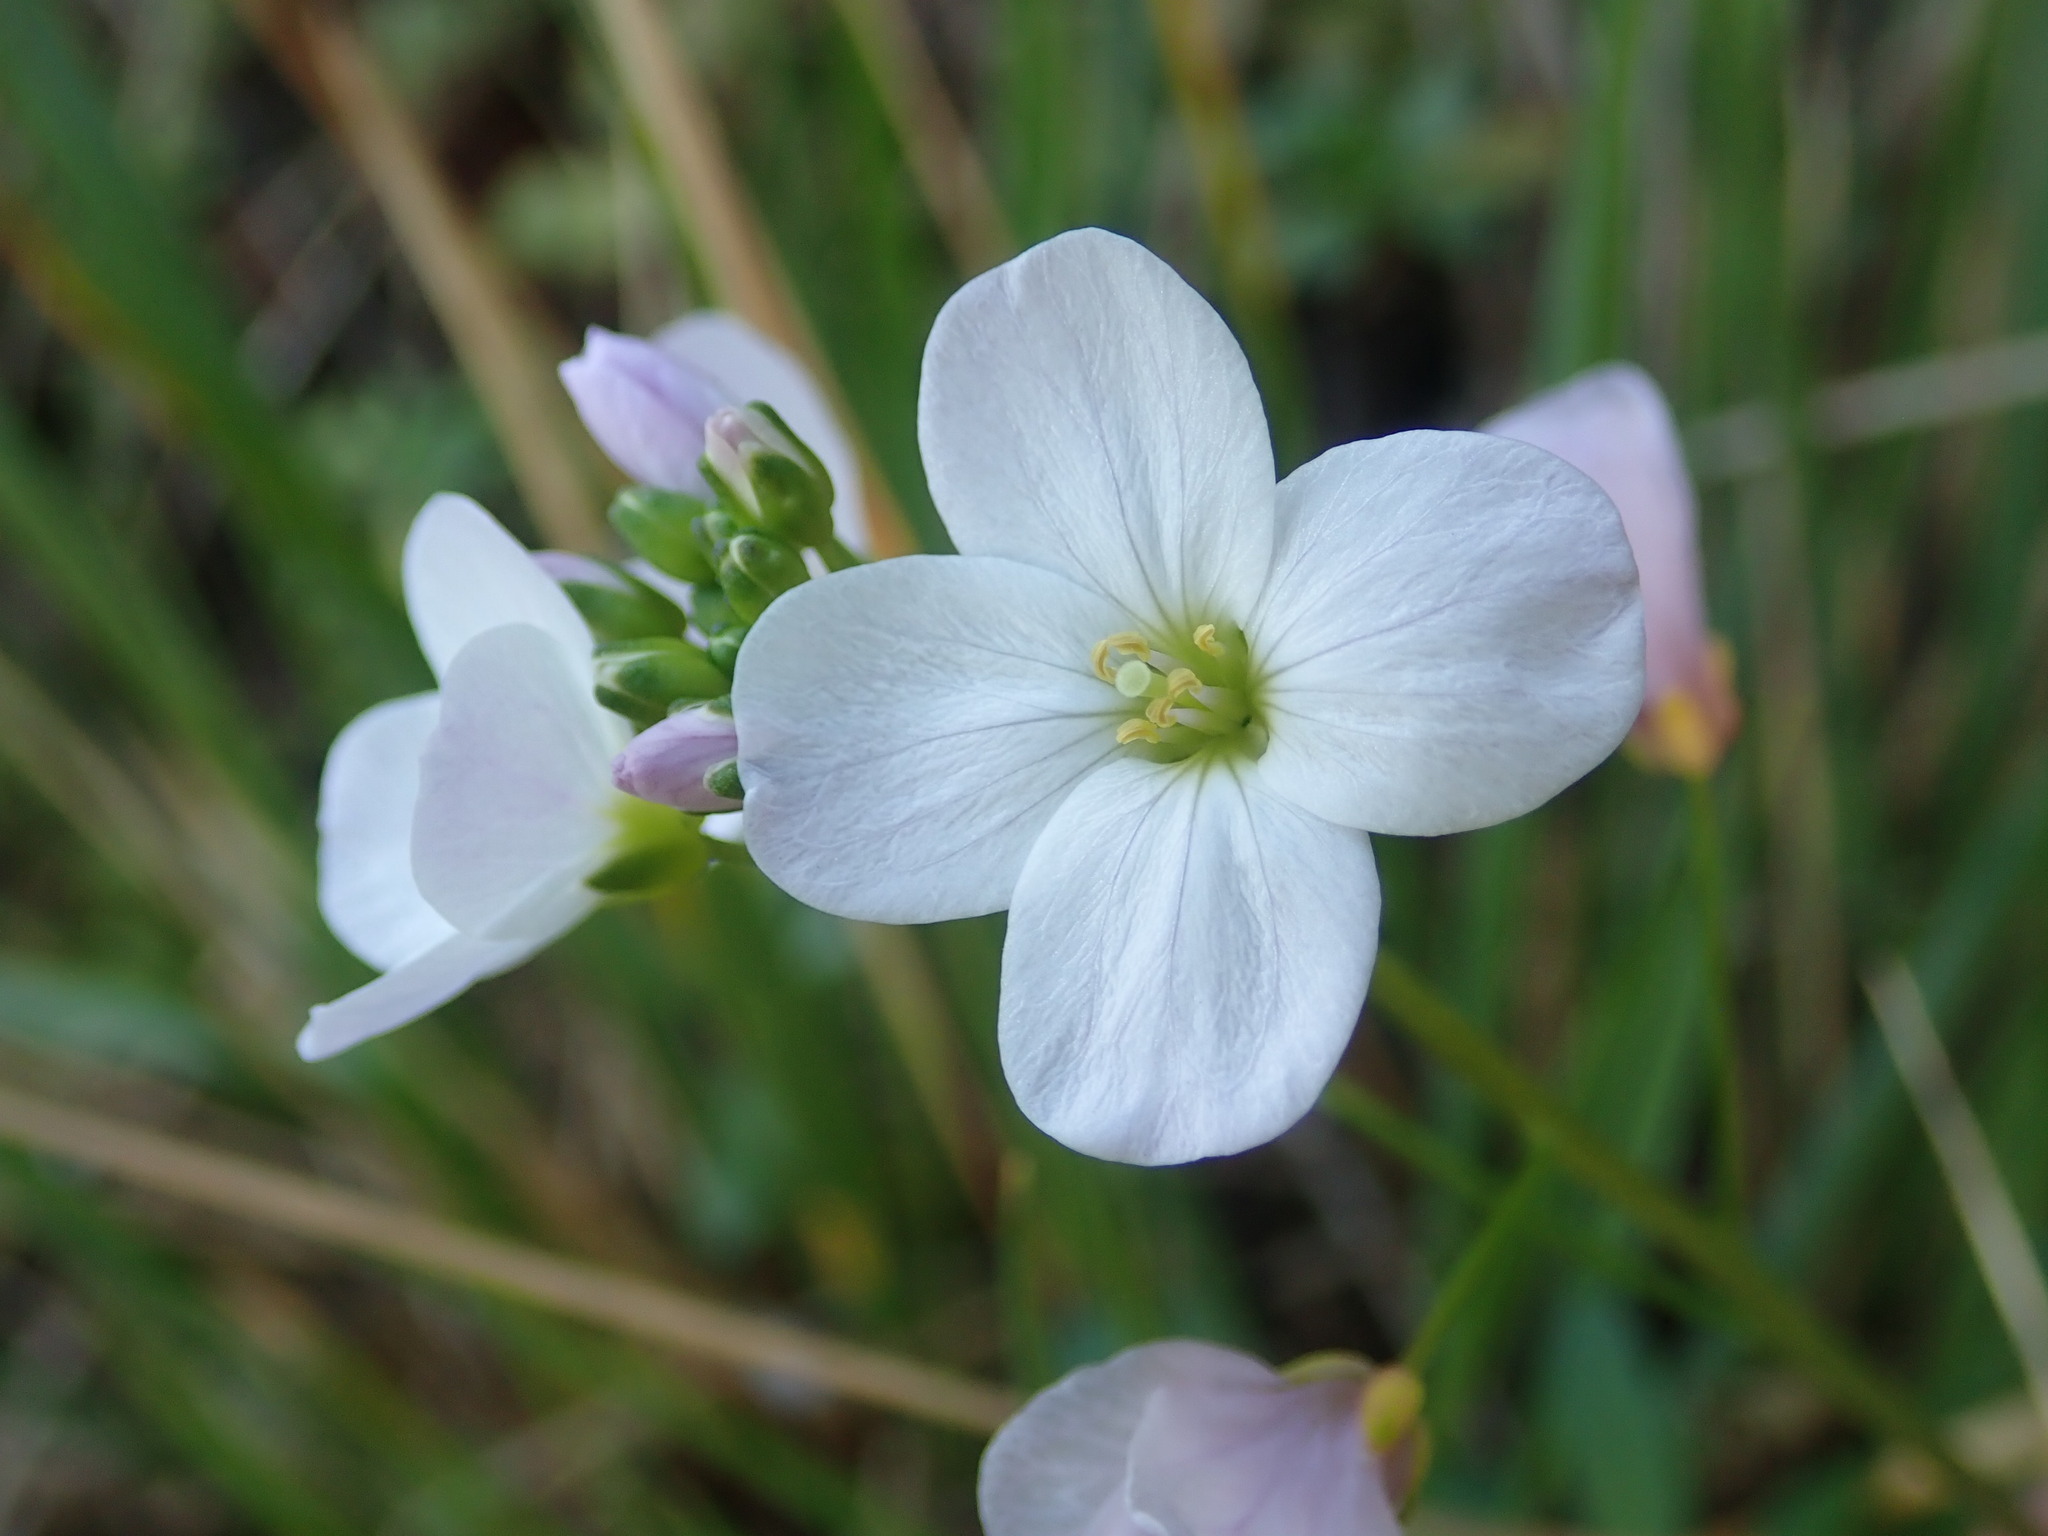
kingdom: Plantae
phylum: Tracheophyta
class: Magnoliopsida
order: Brassicales
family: Brassicaceae
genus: Cardamine
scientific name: Cardamine californica
